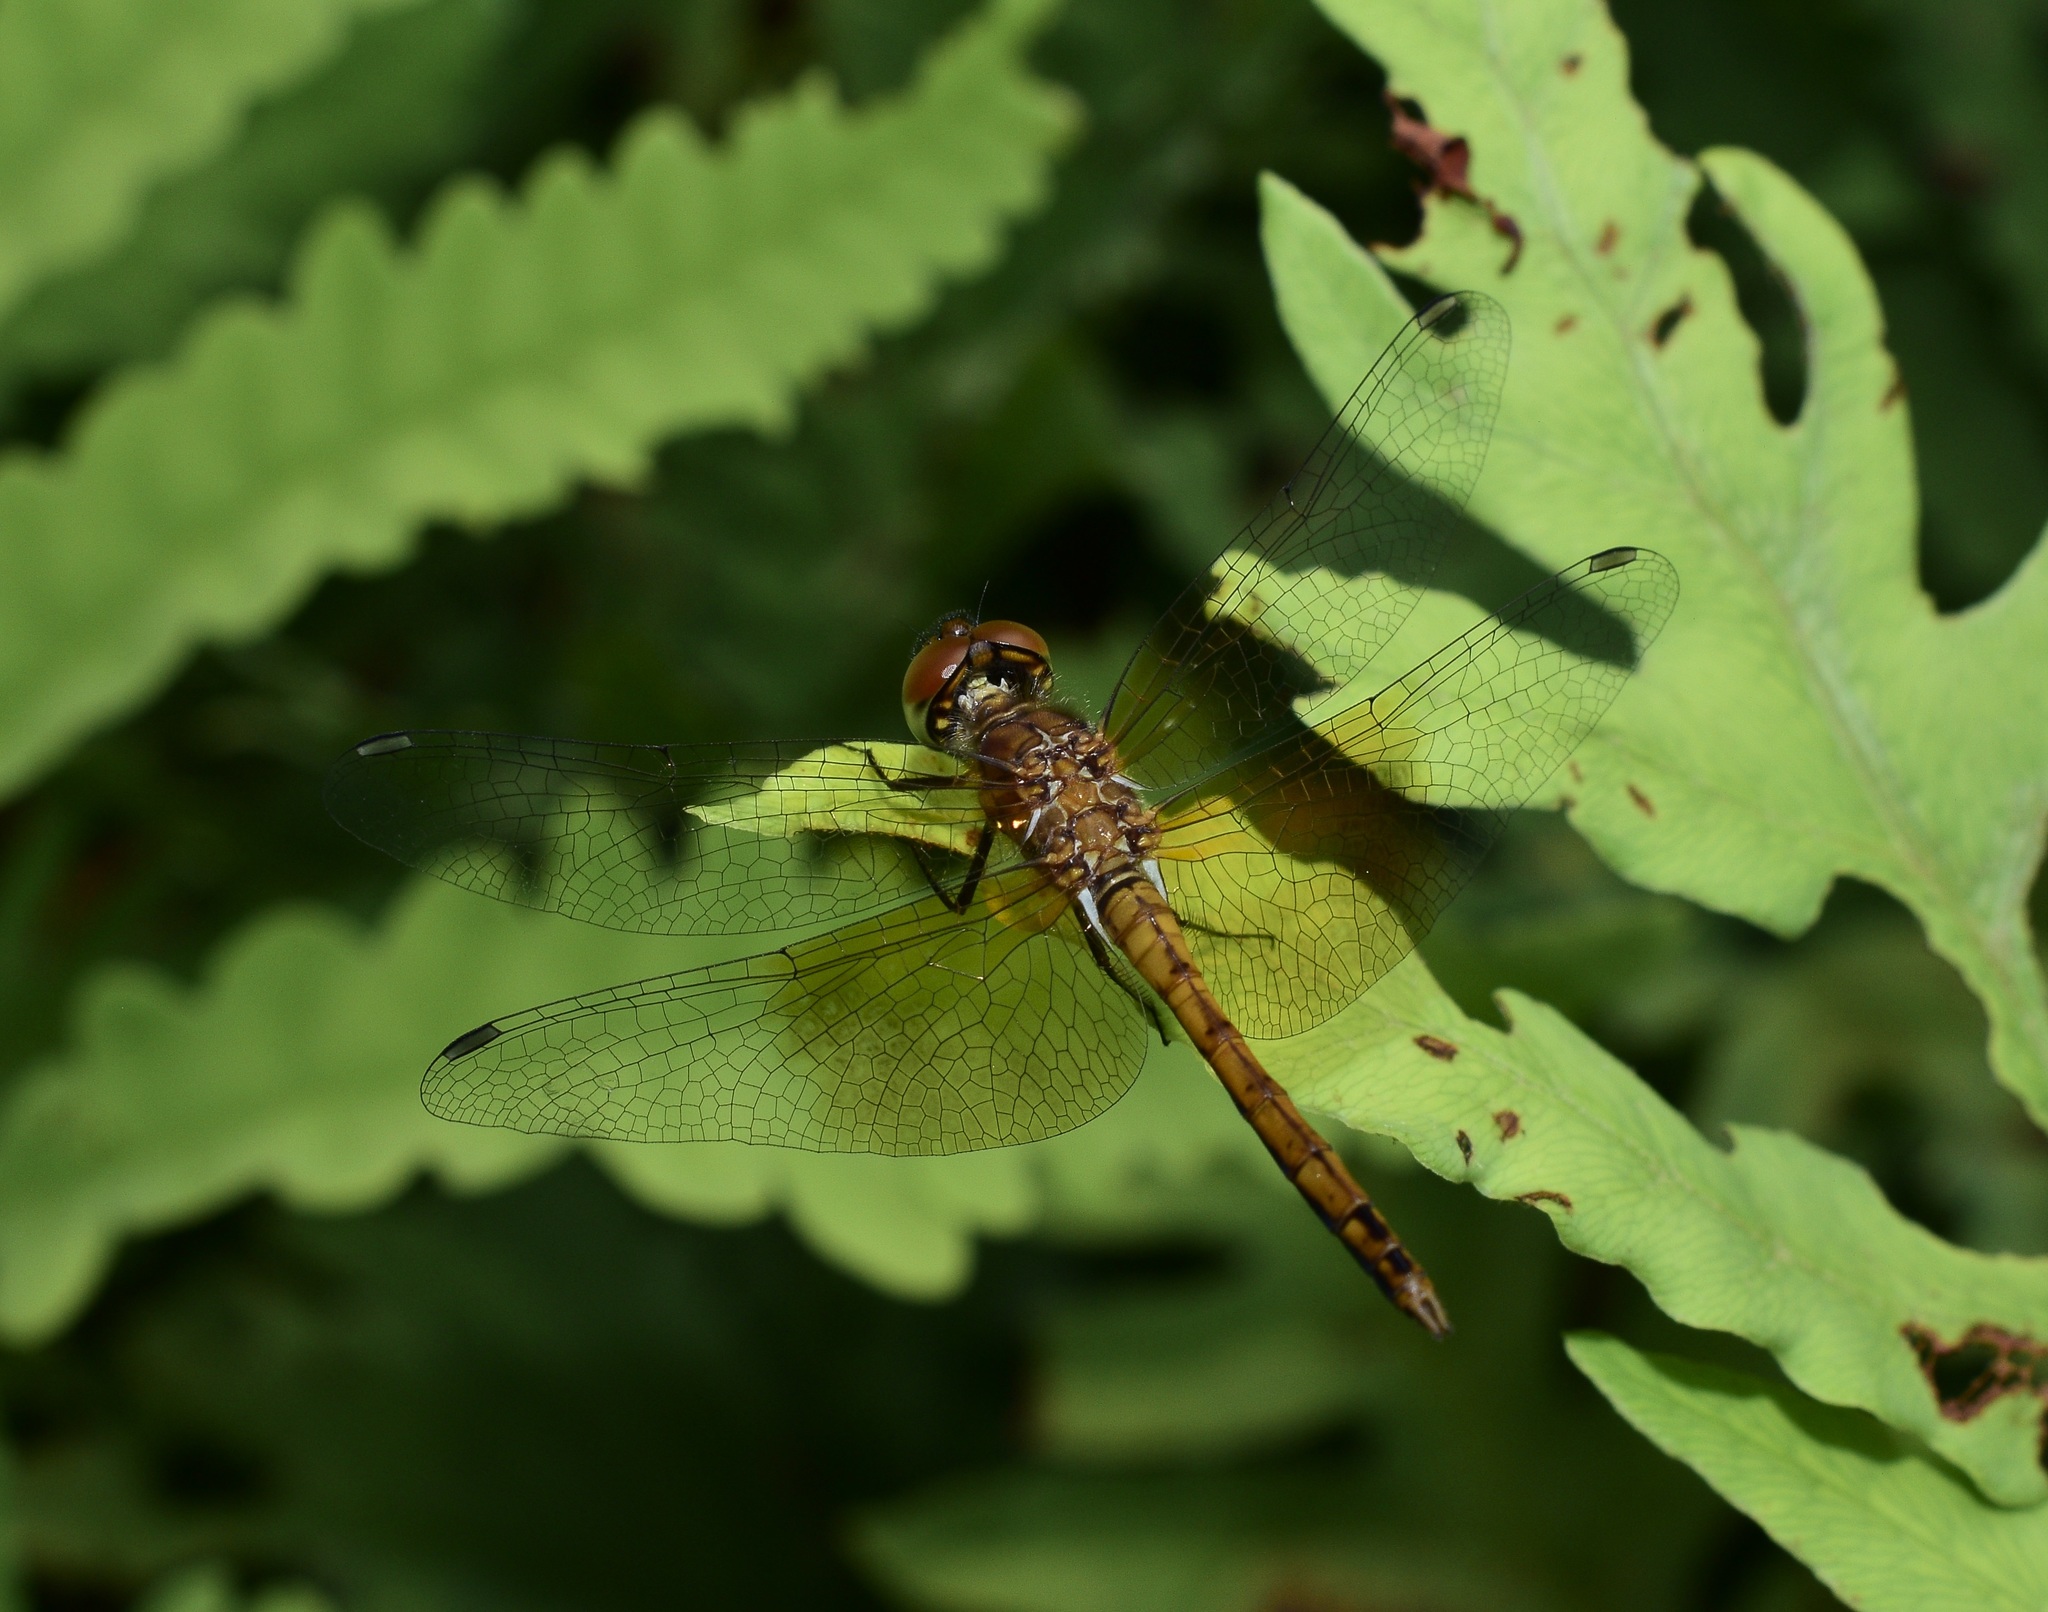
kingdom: Animalia
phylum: Arthropoda
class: Insecta
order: Odonata
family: Libellulidae
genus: Sympetrum
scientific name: Sympetrum semicinctum
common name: Band-winged meadowhawk
